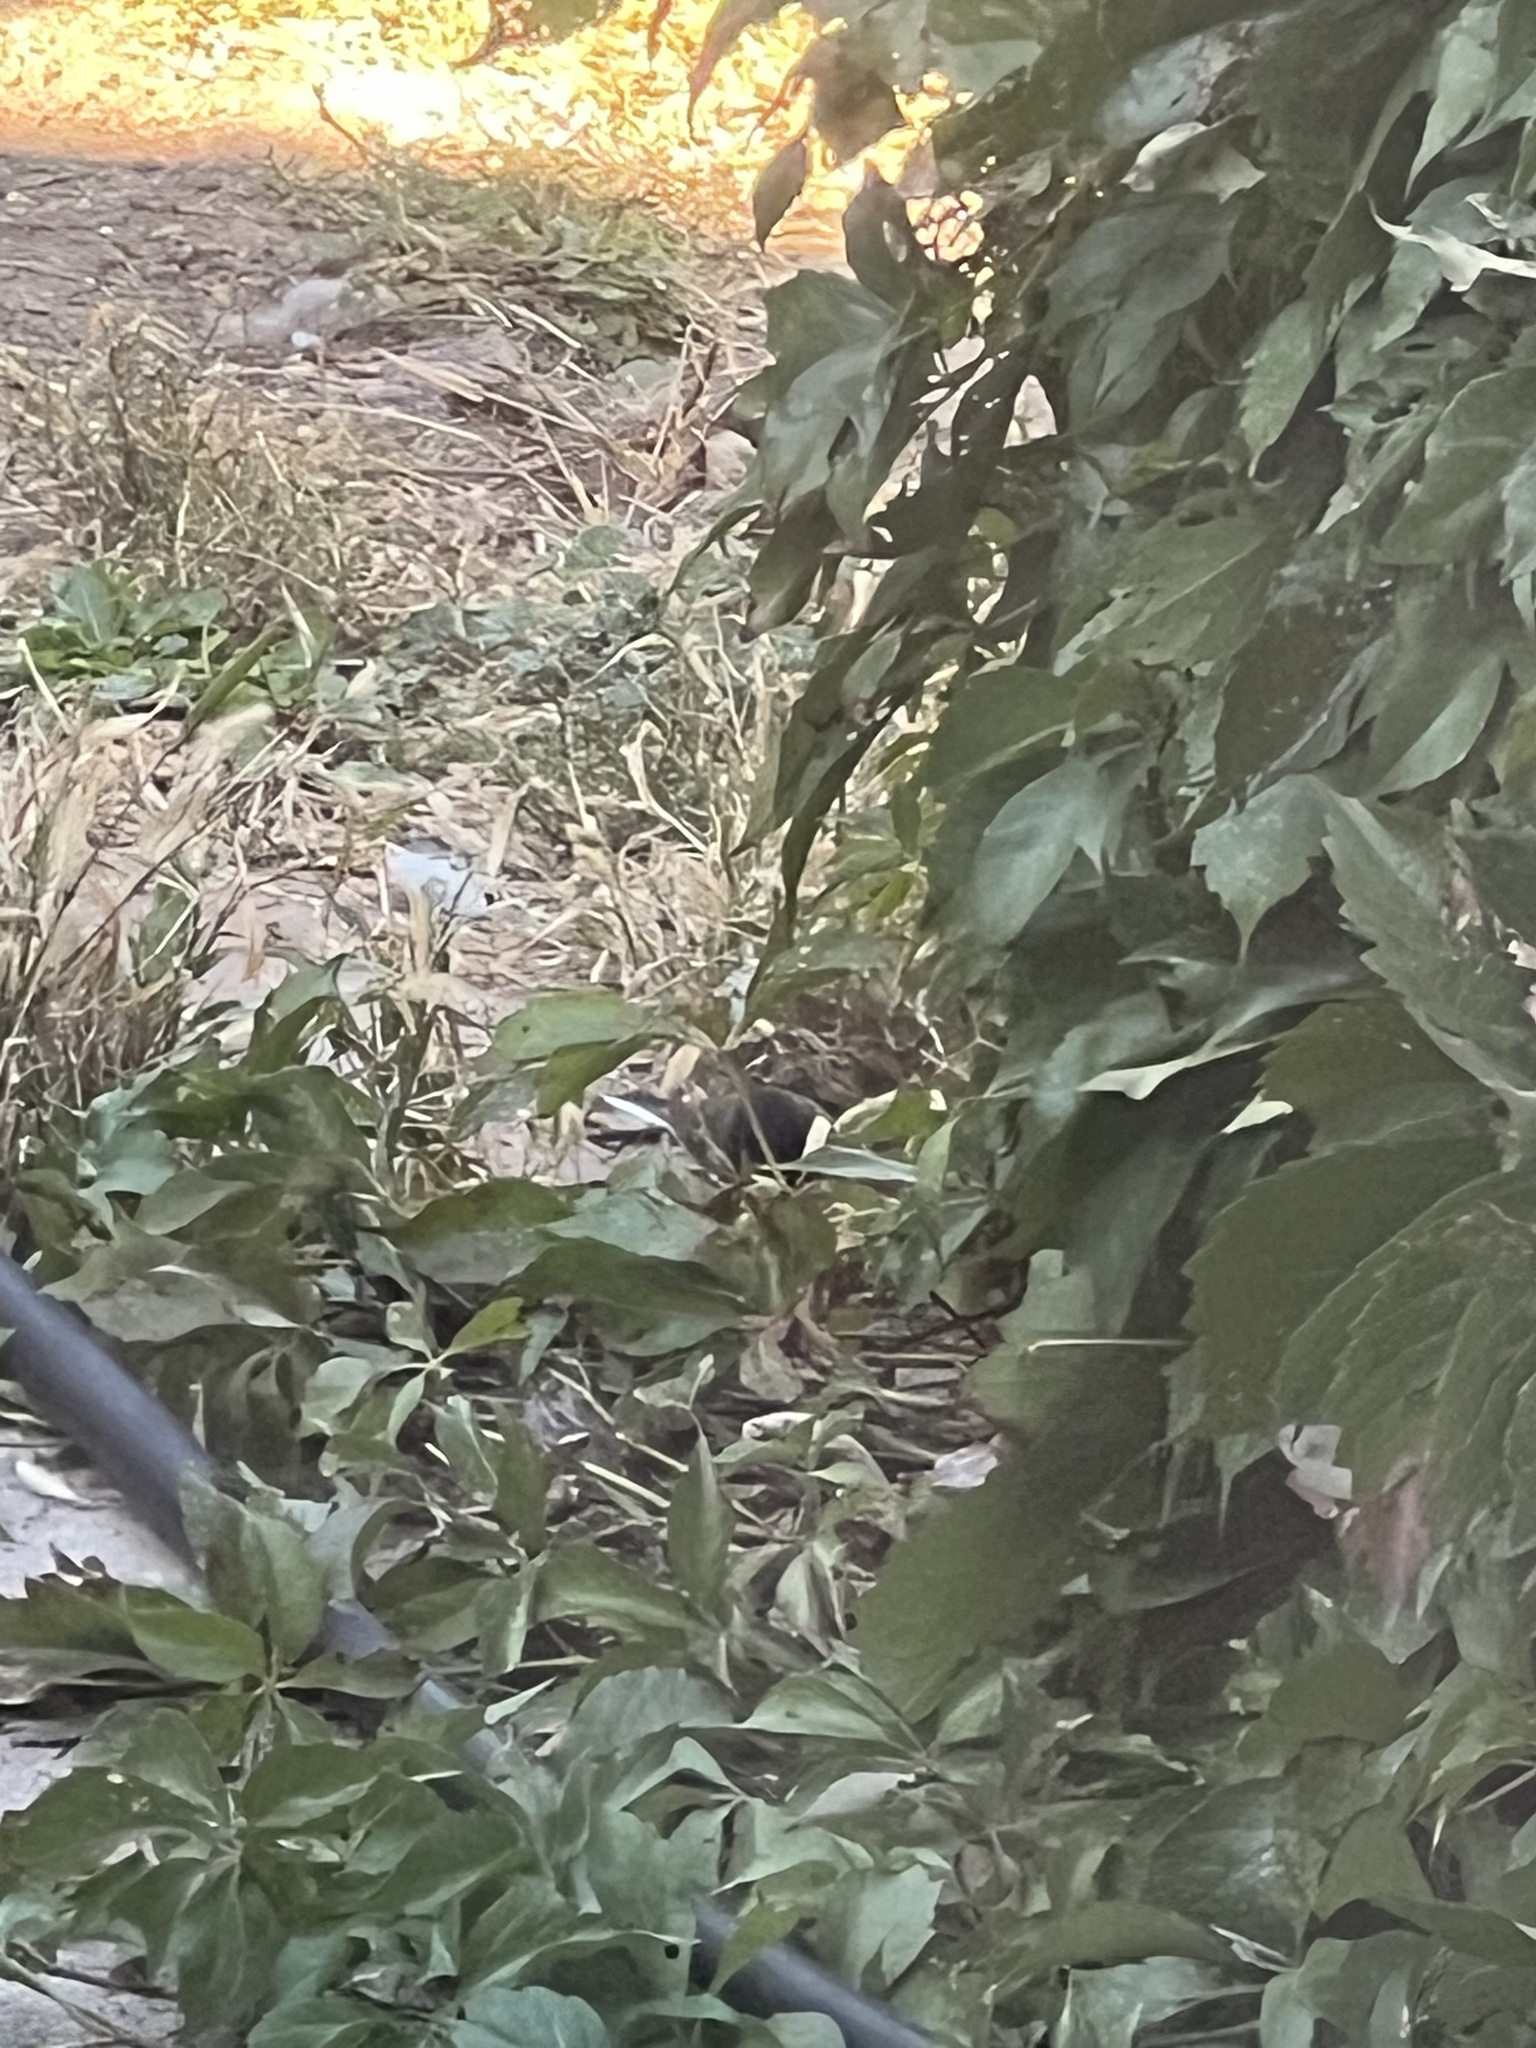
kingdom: Animalia
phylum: Chordata
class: Aves
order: Passeriformes
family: Passerellidae
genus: Junco
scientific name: Junco hyemalis
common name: Dark-eyed junco
